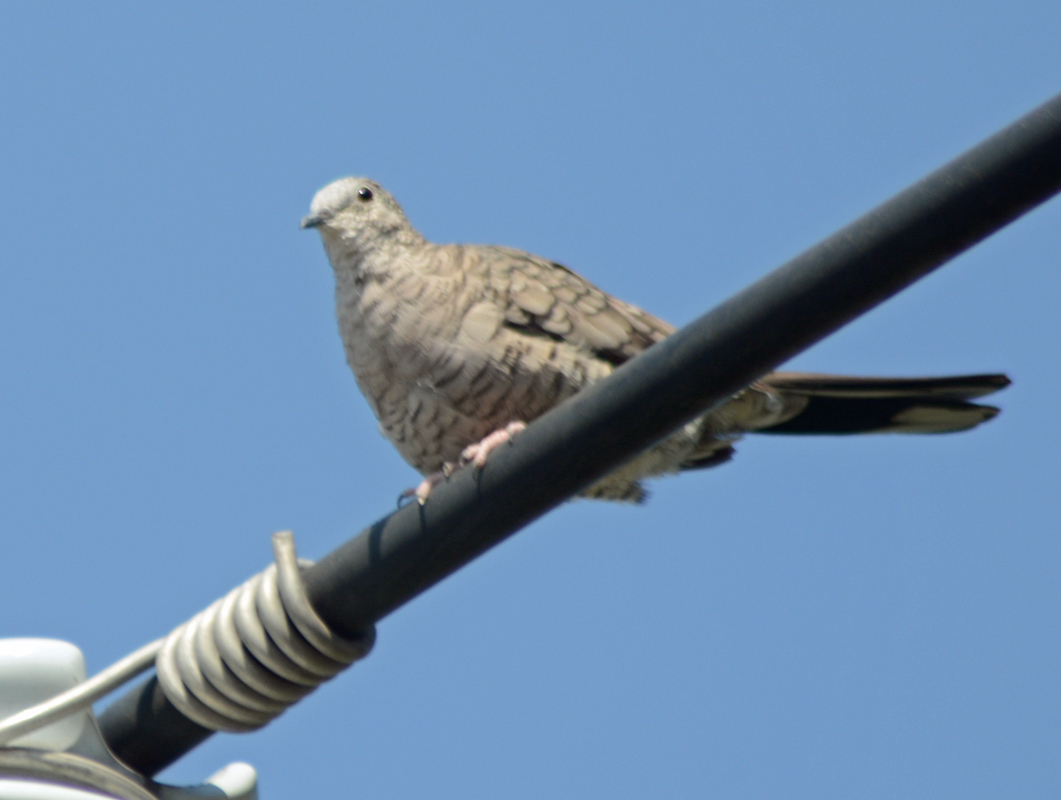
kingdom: Animalia
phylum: Chordata
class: Aves
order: Columbiformes
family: Columbidae
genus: Columbina
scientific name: Columbina inca
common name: Inca dove
